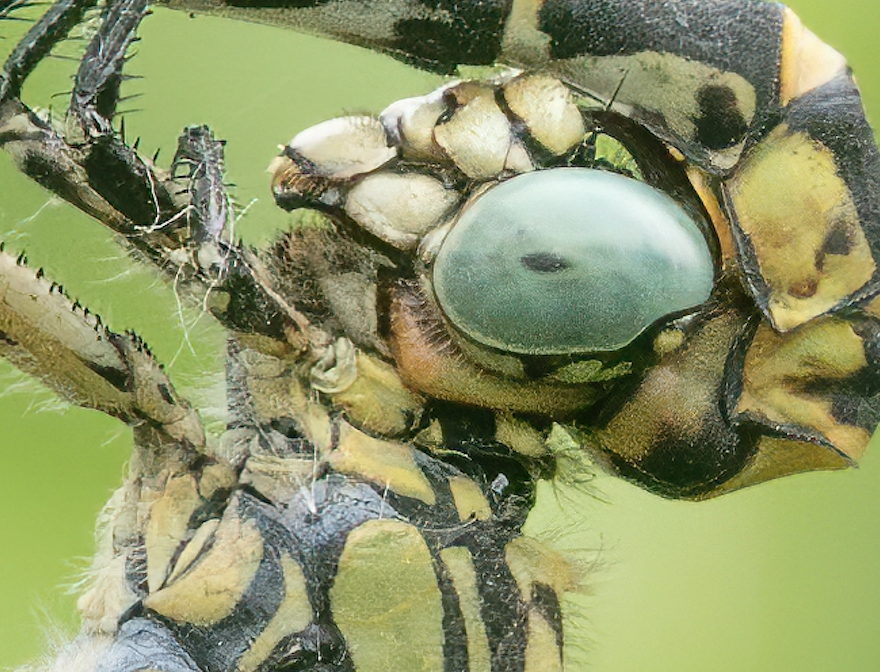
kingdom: Animalia
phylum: Arthropoda
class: Insecta
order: Odonata
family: Gomphidae
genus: Onychogomphus
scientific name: Onychogomphus forcipatus
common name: Small pincertail
